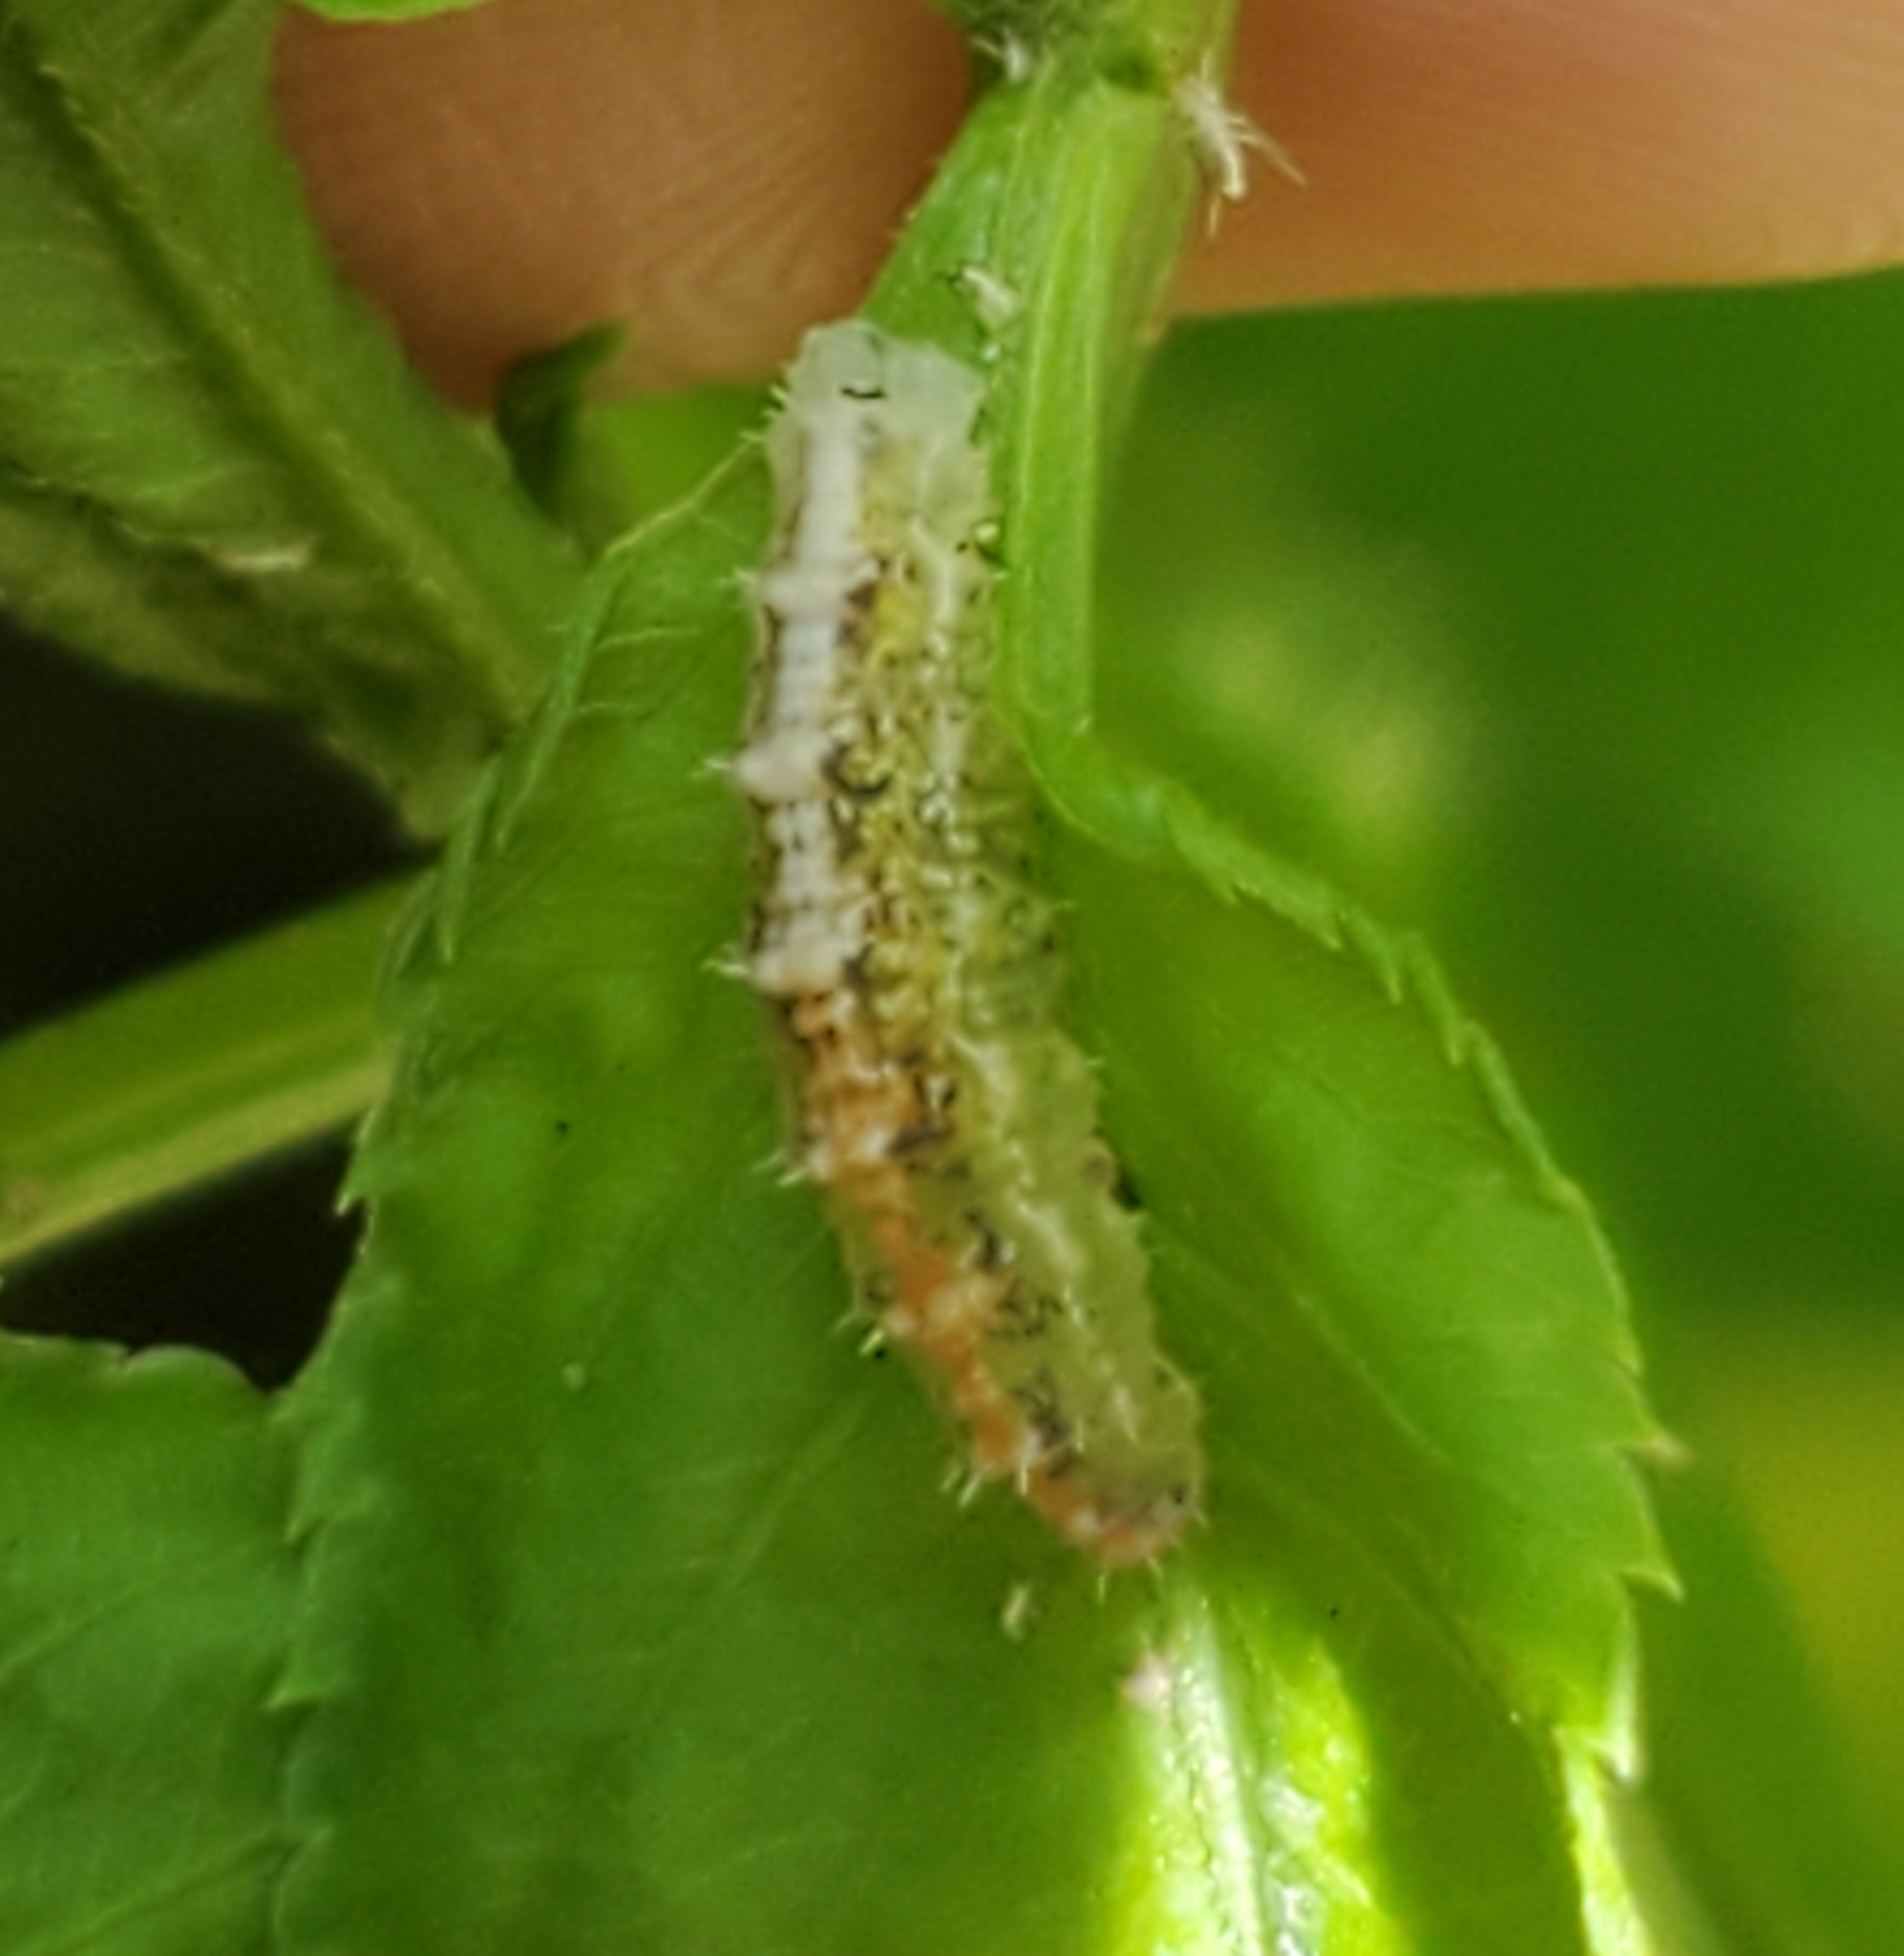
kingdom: Animalia
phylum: Arthropoda
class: Insecta
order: Diptera
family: Syrphidae
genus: Dioprosopa
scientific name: Dioprosopa clavatus
